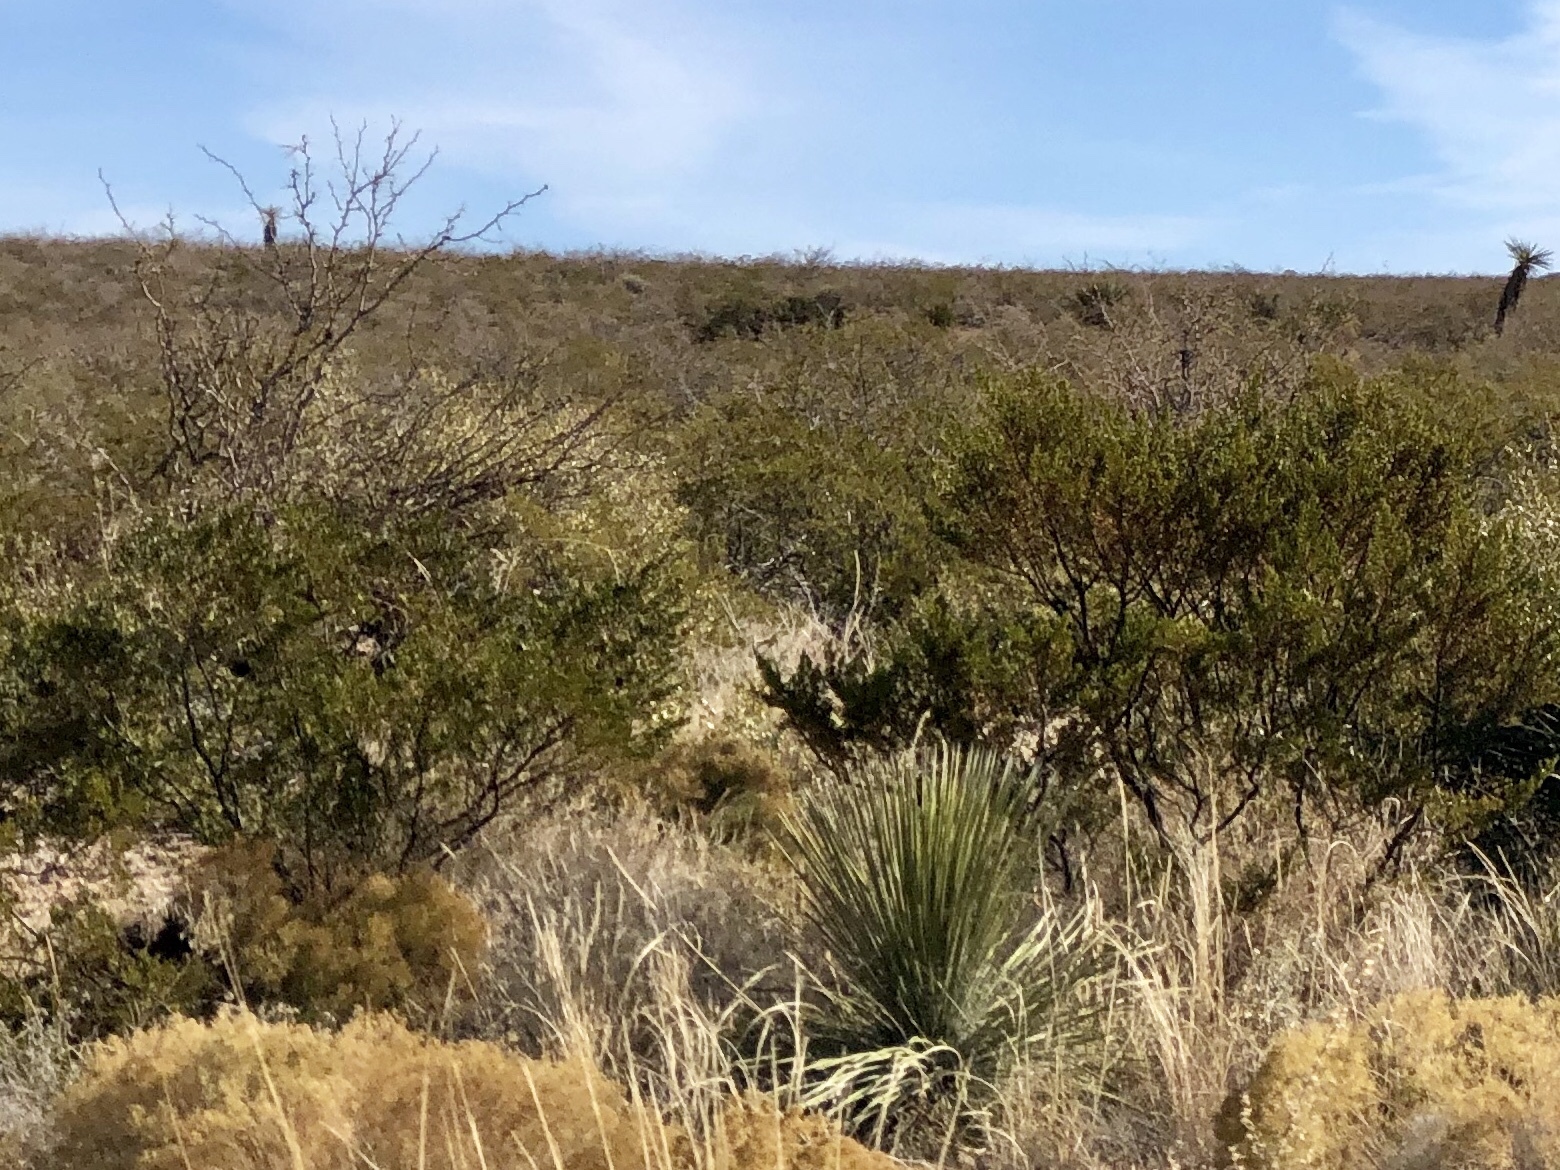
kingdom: Plantae
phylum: Tracheophyta
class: Magnoliopsida
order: Zygophyllales
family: Zygophyllaceae
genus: Larrea
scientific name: Larrea tridentata
